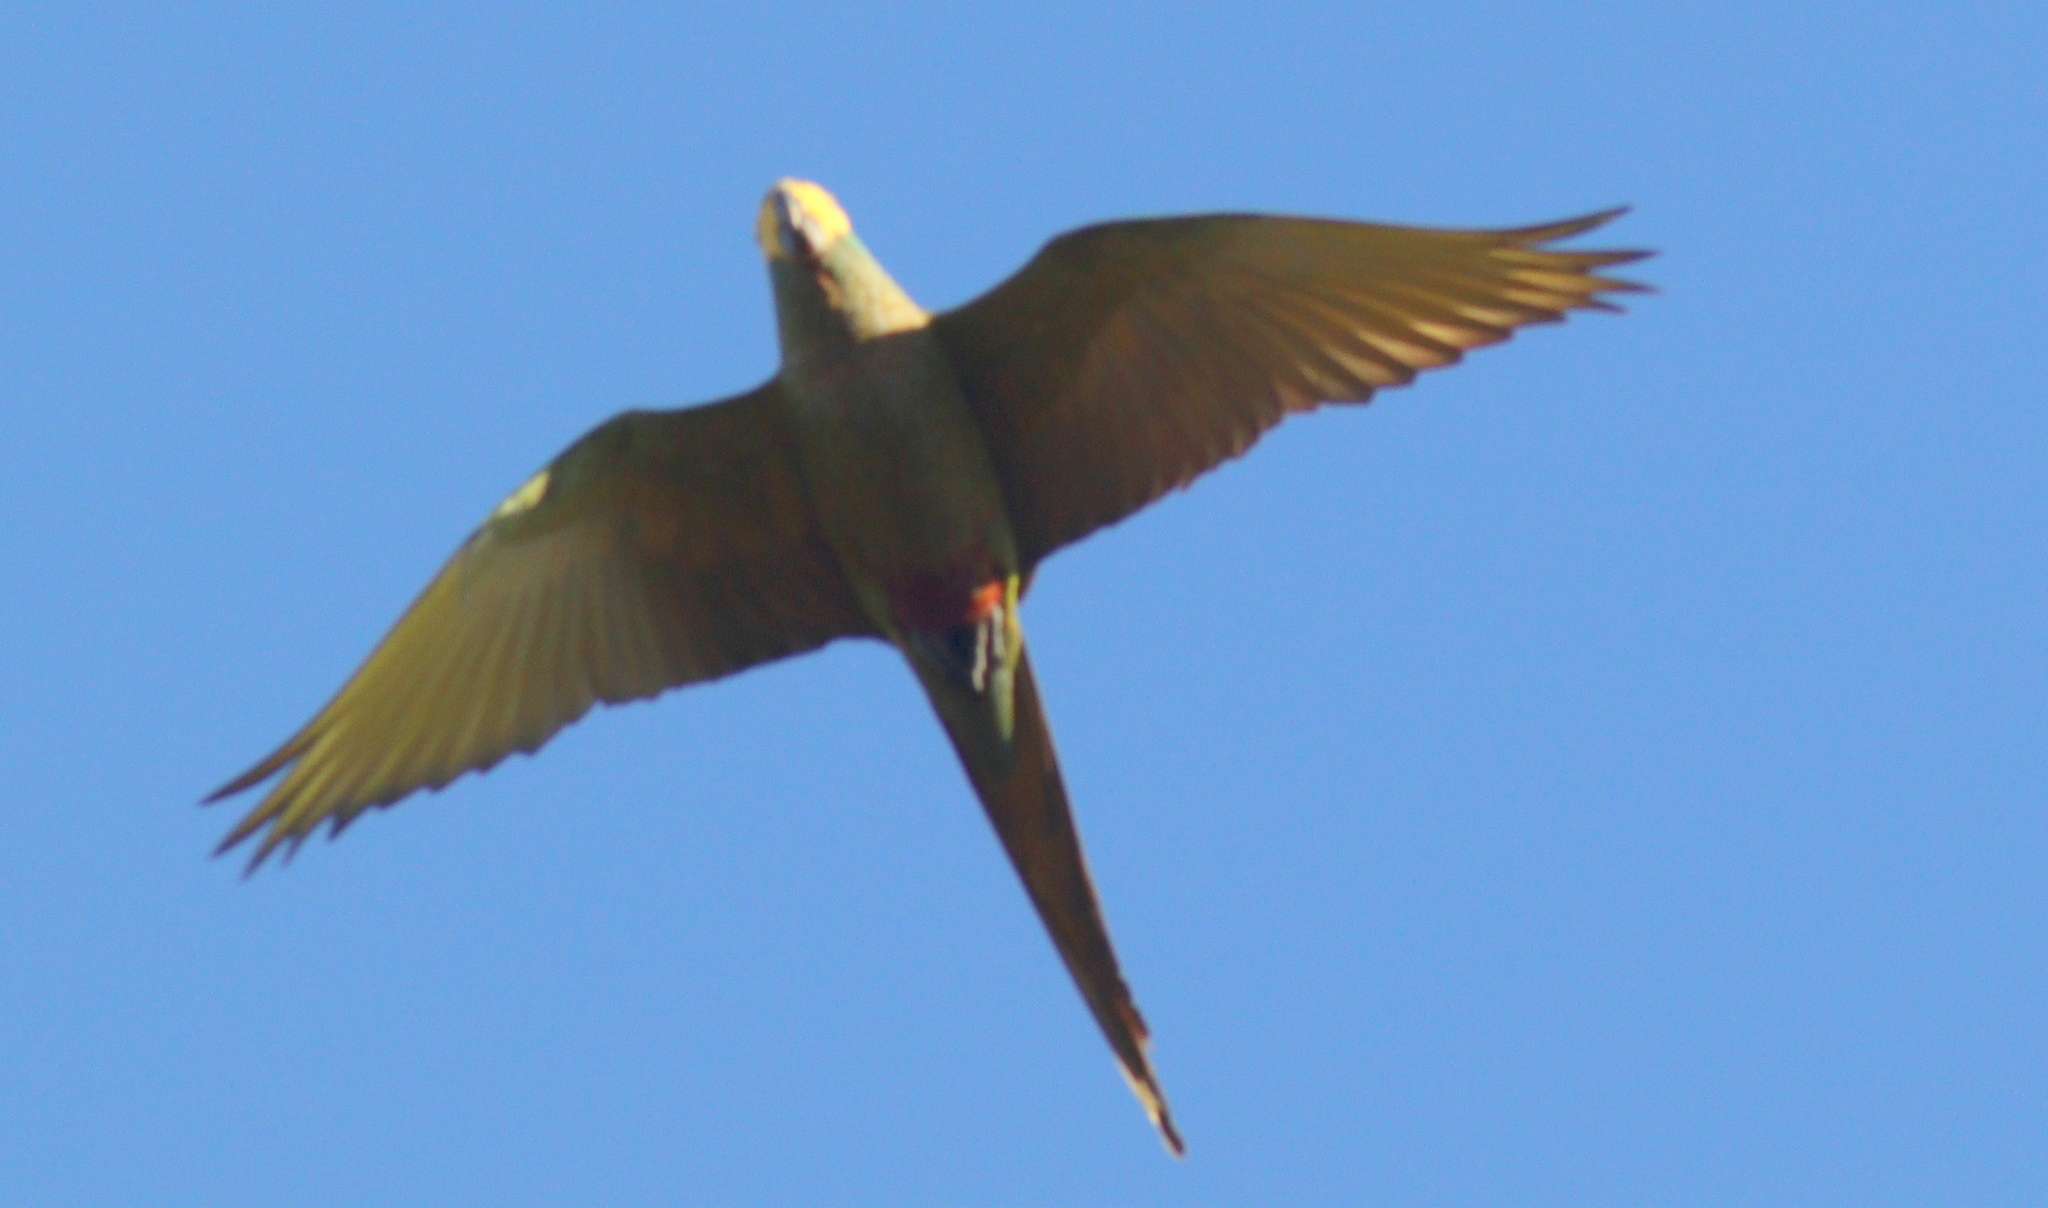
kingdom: Animalia
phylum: Chordata
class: Aves
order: Psittaciformes
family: Psittacidae
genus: Orthopsittaca
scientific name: Orthopsittaca manilata
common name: Red-bellied macaw
